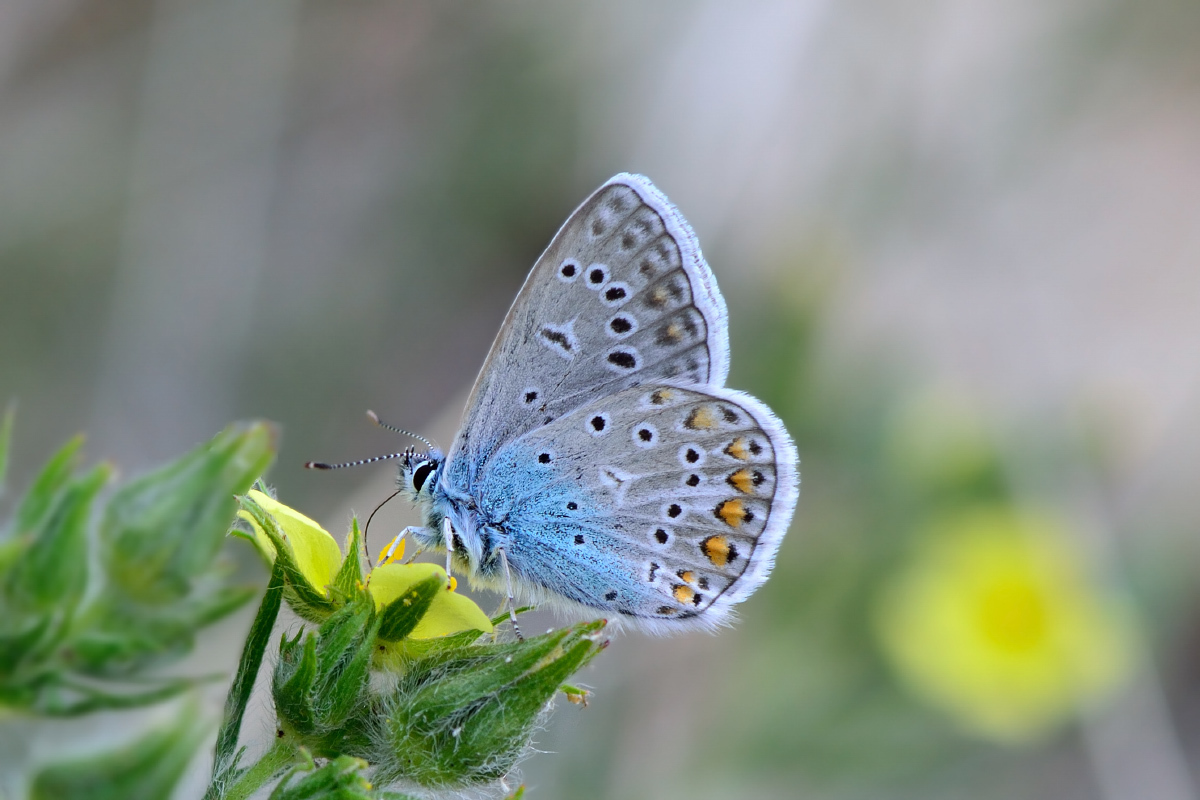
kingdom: Animalia
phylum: Arthropoda
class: Insecta
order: Lepidoptera
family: Lycaenidae
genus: Polyommatus
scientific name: Polyommatus icarus
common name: Common blue
